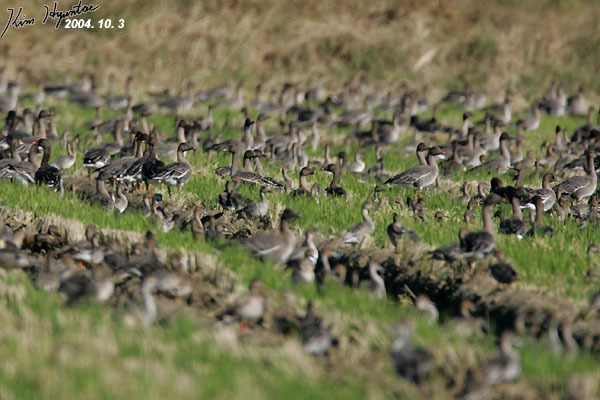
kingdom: Animalia
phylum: Chordata
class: Aves
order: Anseriformes
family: Anatidae
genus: Anas
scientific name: Anas acuta
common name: Northern pintail
